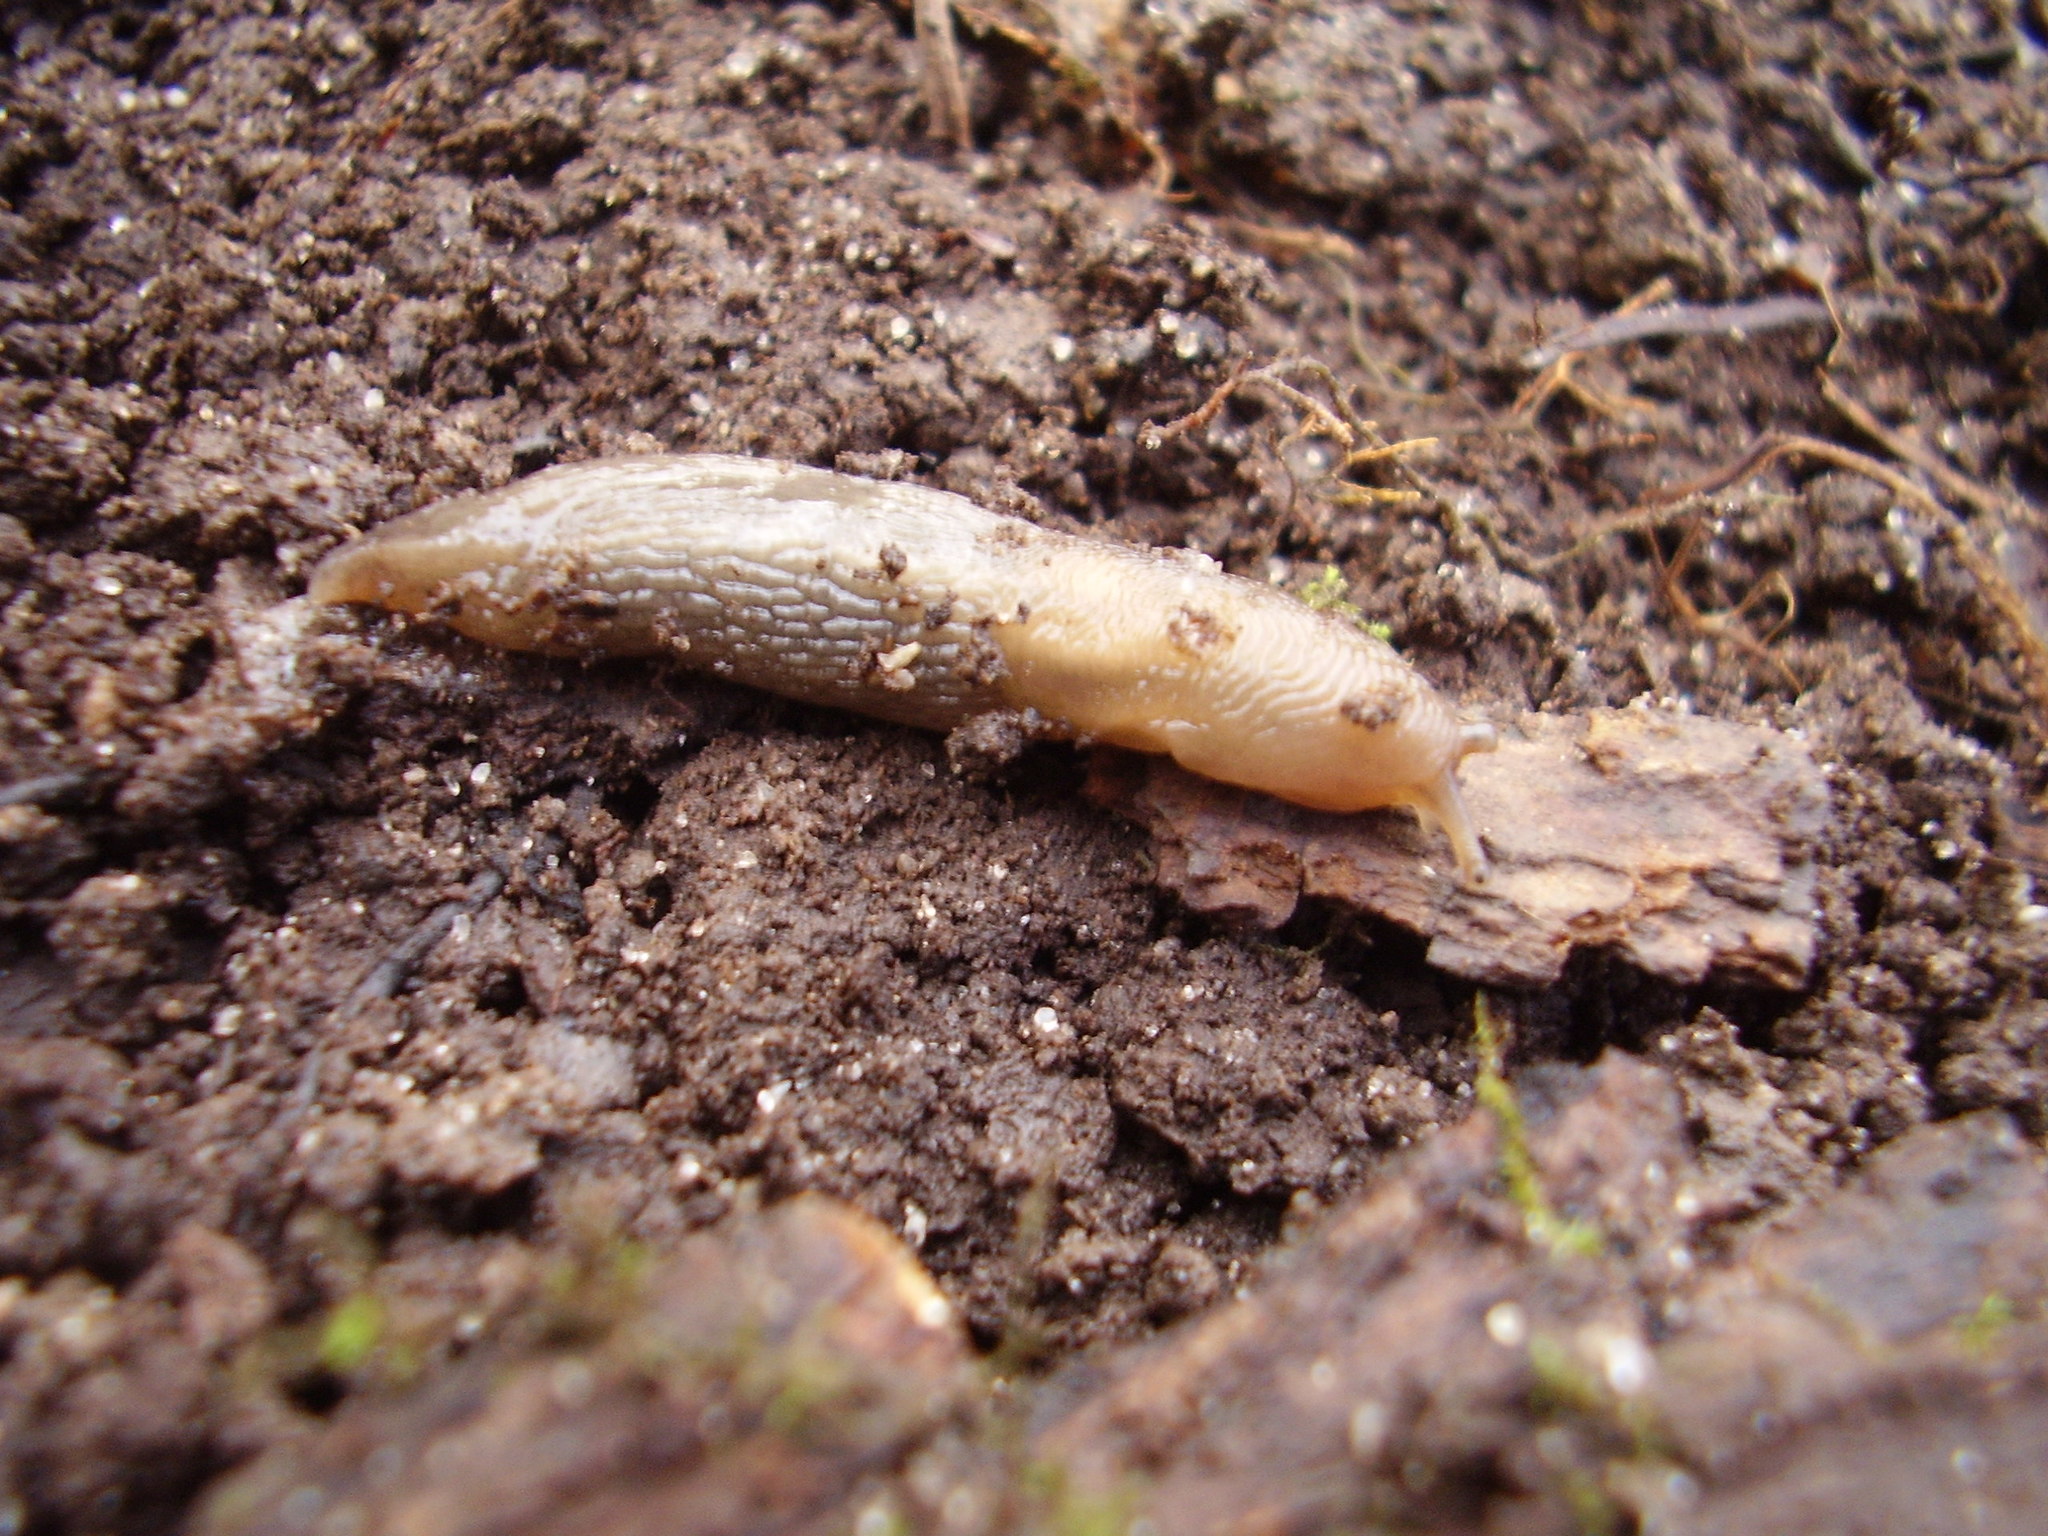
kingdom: Animalia
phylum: Mollusca
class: Gastropoda
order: Stylommatophora
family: Limacidae
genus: Lehmannia
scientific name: Lehmannia marginata
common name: Tree slug
